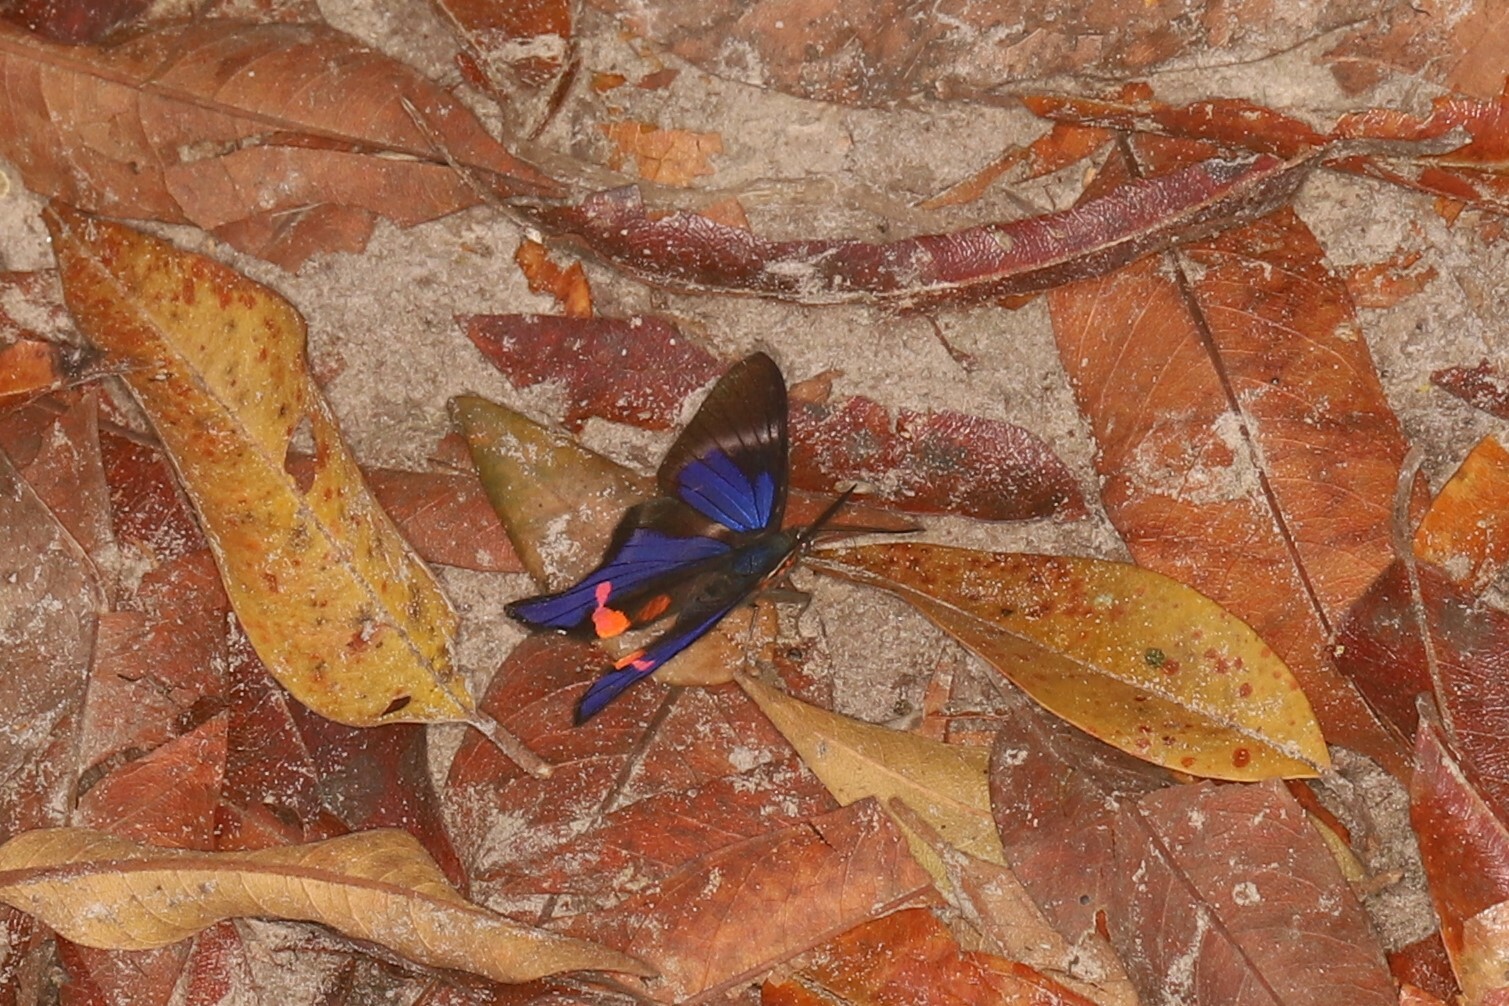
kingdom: Animalia
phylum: Arthropoda
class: Insecta
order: Lepidoptera
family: Riodinidae
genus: Rhetus
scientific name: Rhetus periander
